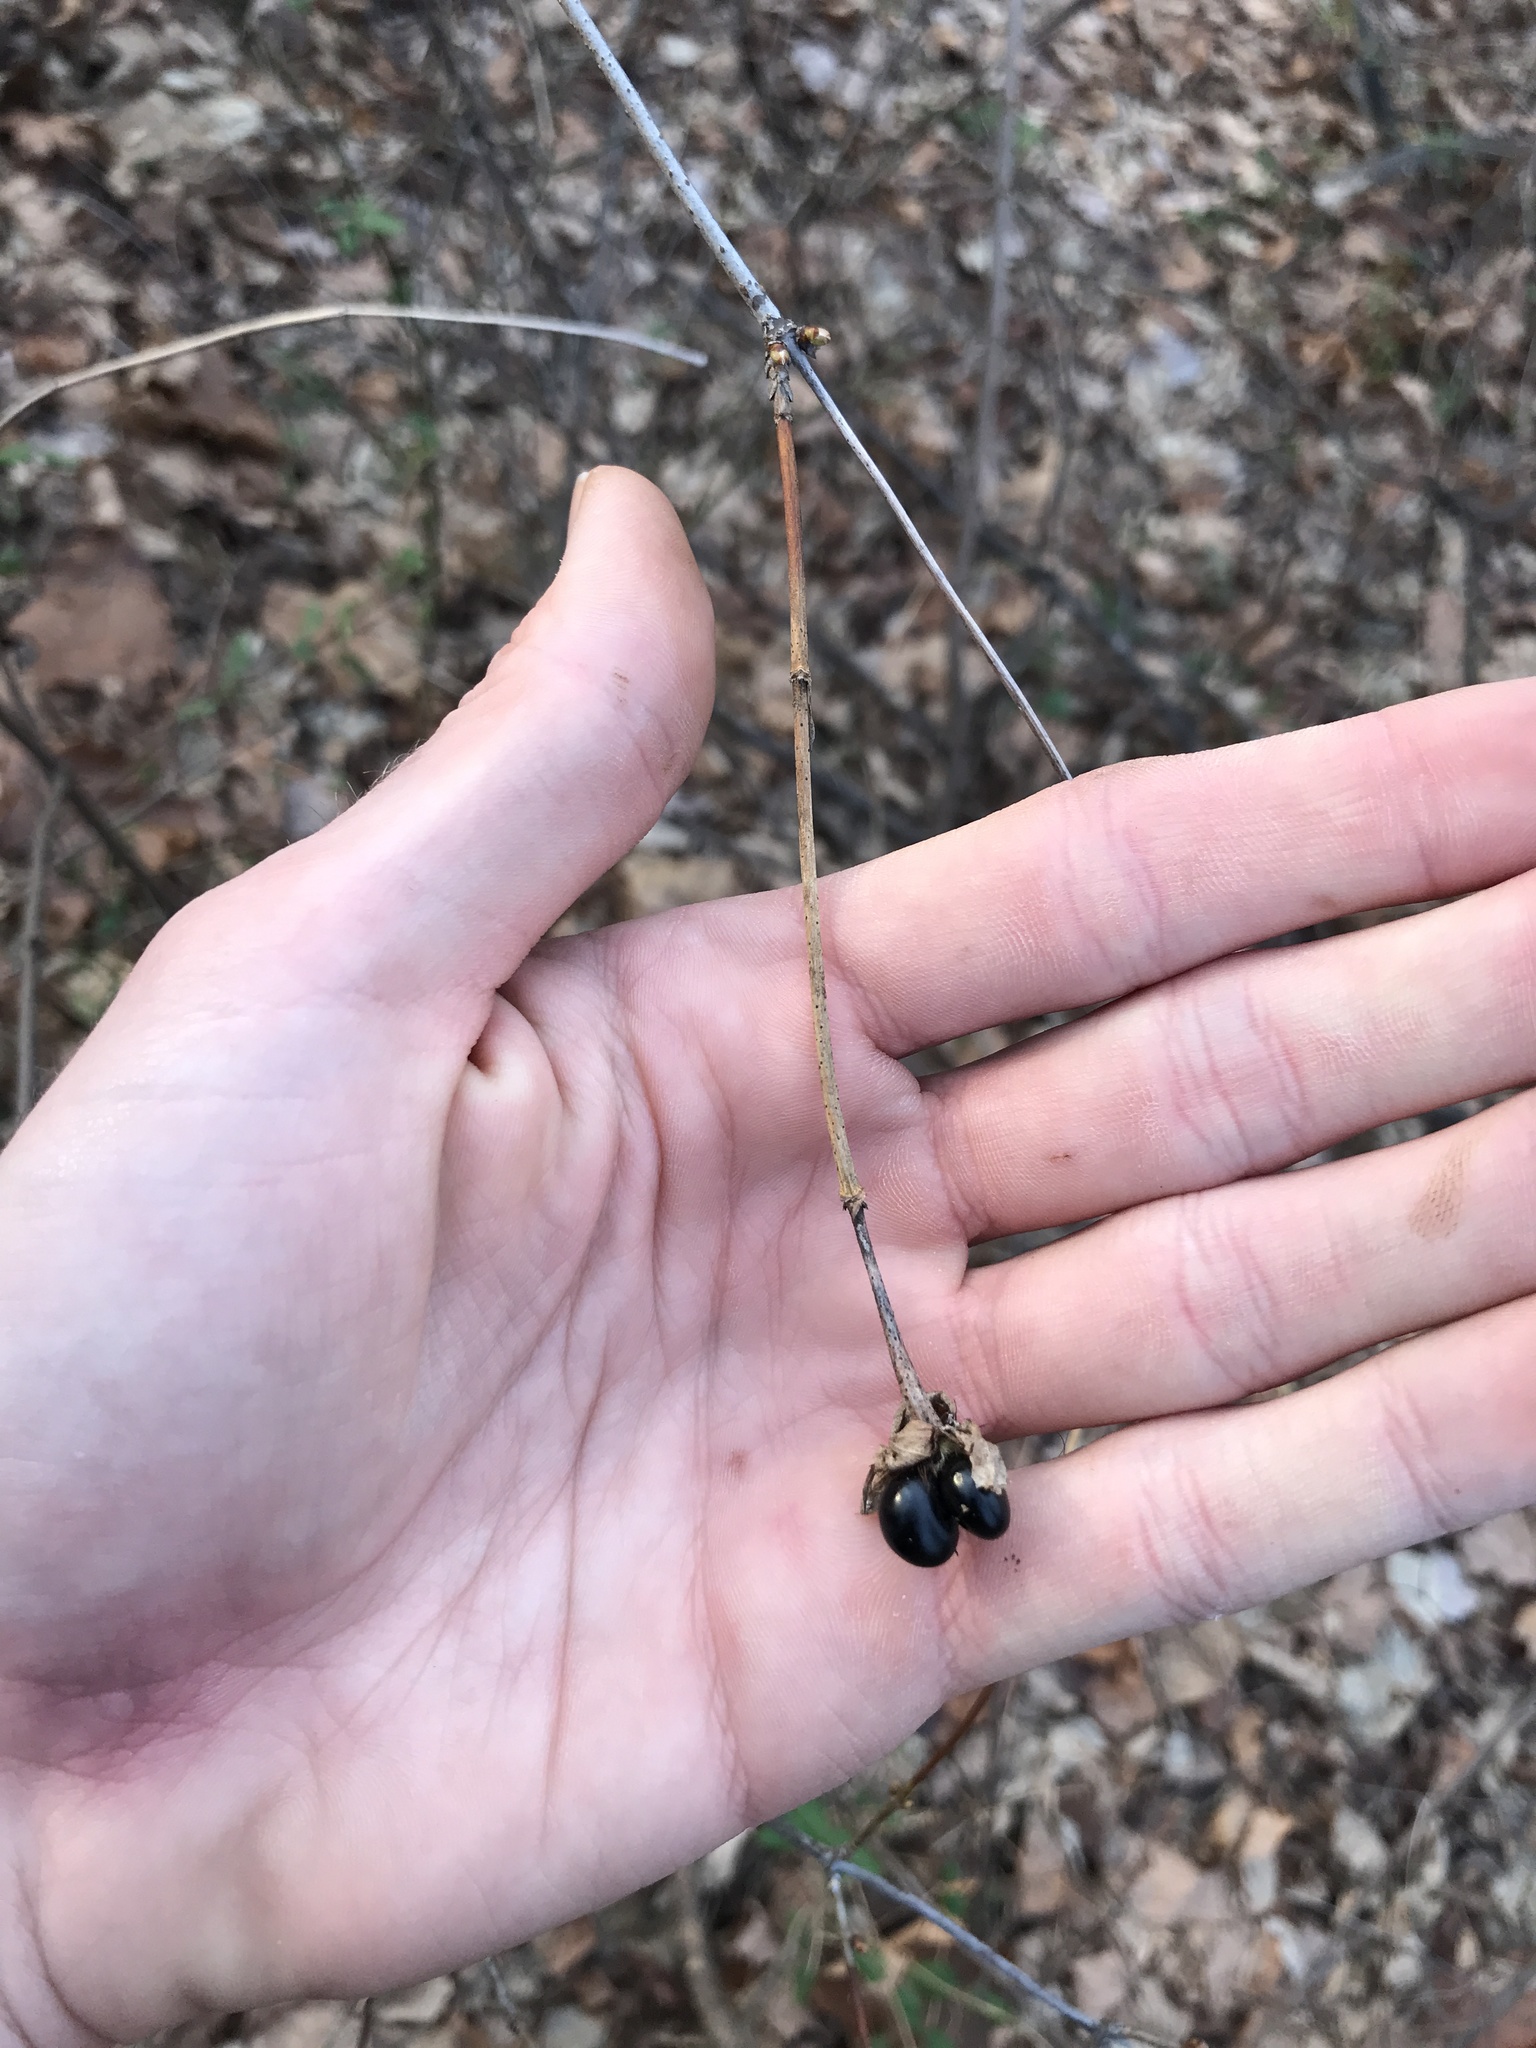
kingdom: Plantae
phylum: Tracheophyta
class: Magnoliopsida
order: Rosales
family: Rosaceae
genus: Rhodotypos
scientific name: Rhodotypos scandens
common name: Jetbead
